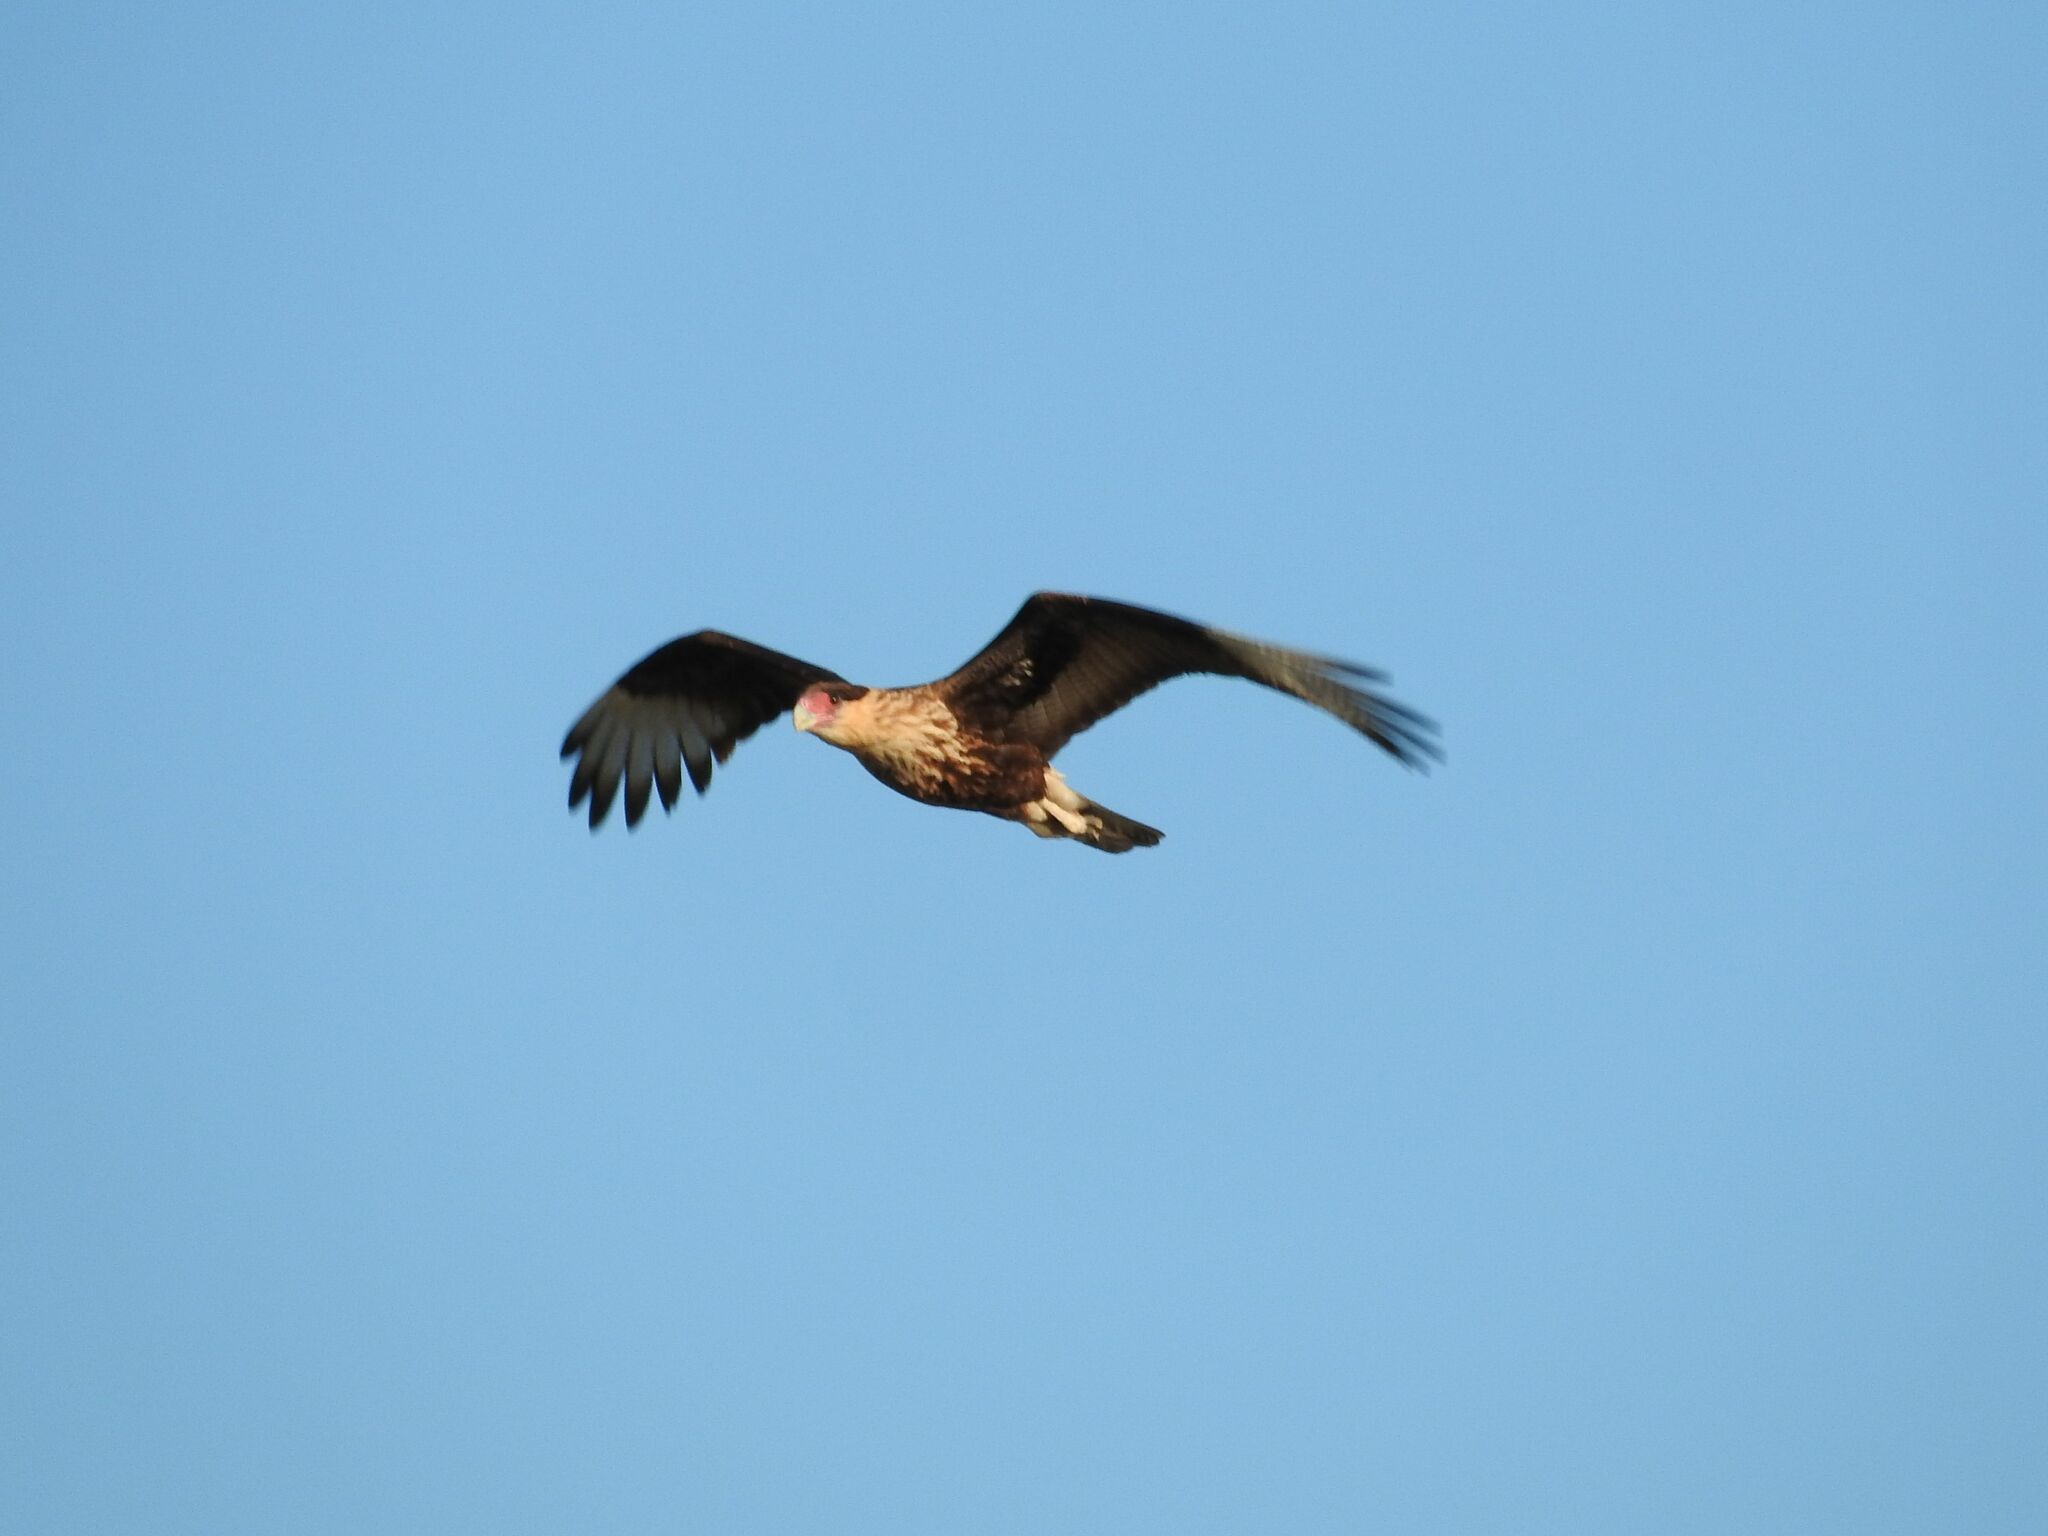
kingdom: Animalia
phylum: Chordata
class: Aves
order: Falconiformes
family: Falconidae
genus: Caracara
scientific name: Caracara plancus
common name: Southern caracara
